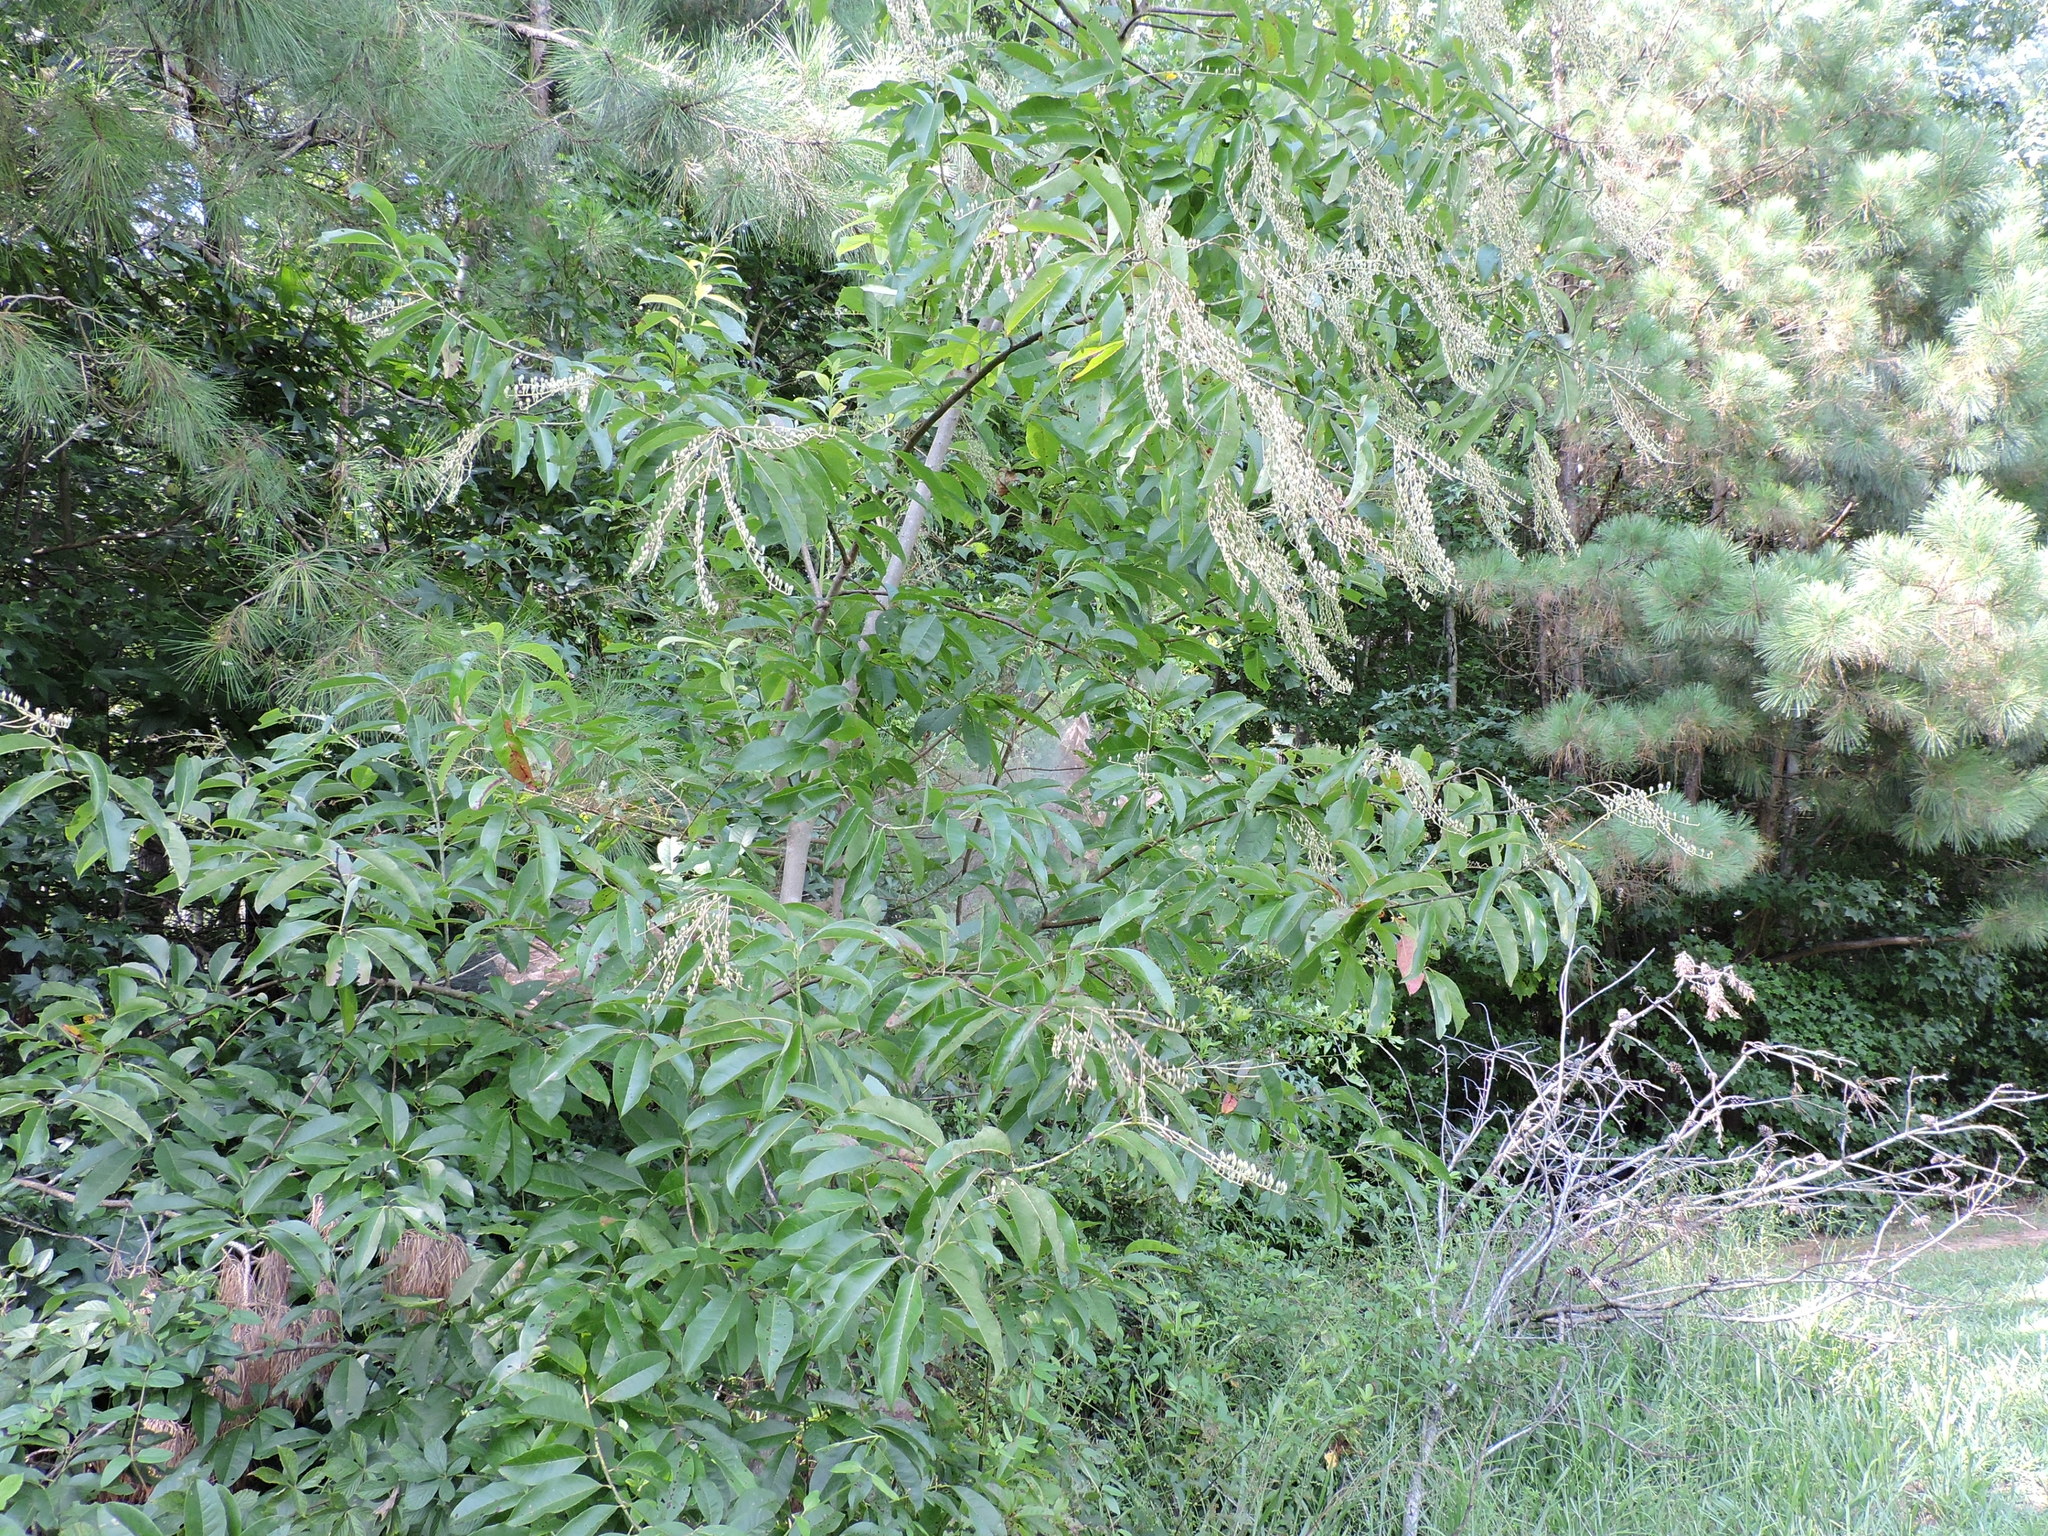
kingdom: Plantae
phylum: Tracheophyta
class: Magnoliopsida
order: Ericales
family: Ericaceae
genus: Oxydendrum
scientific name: Oxydendrum arboreum
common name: Sourwood
